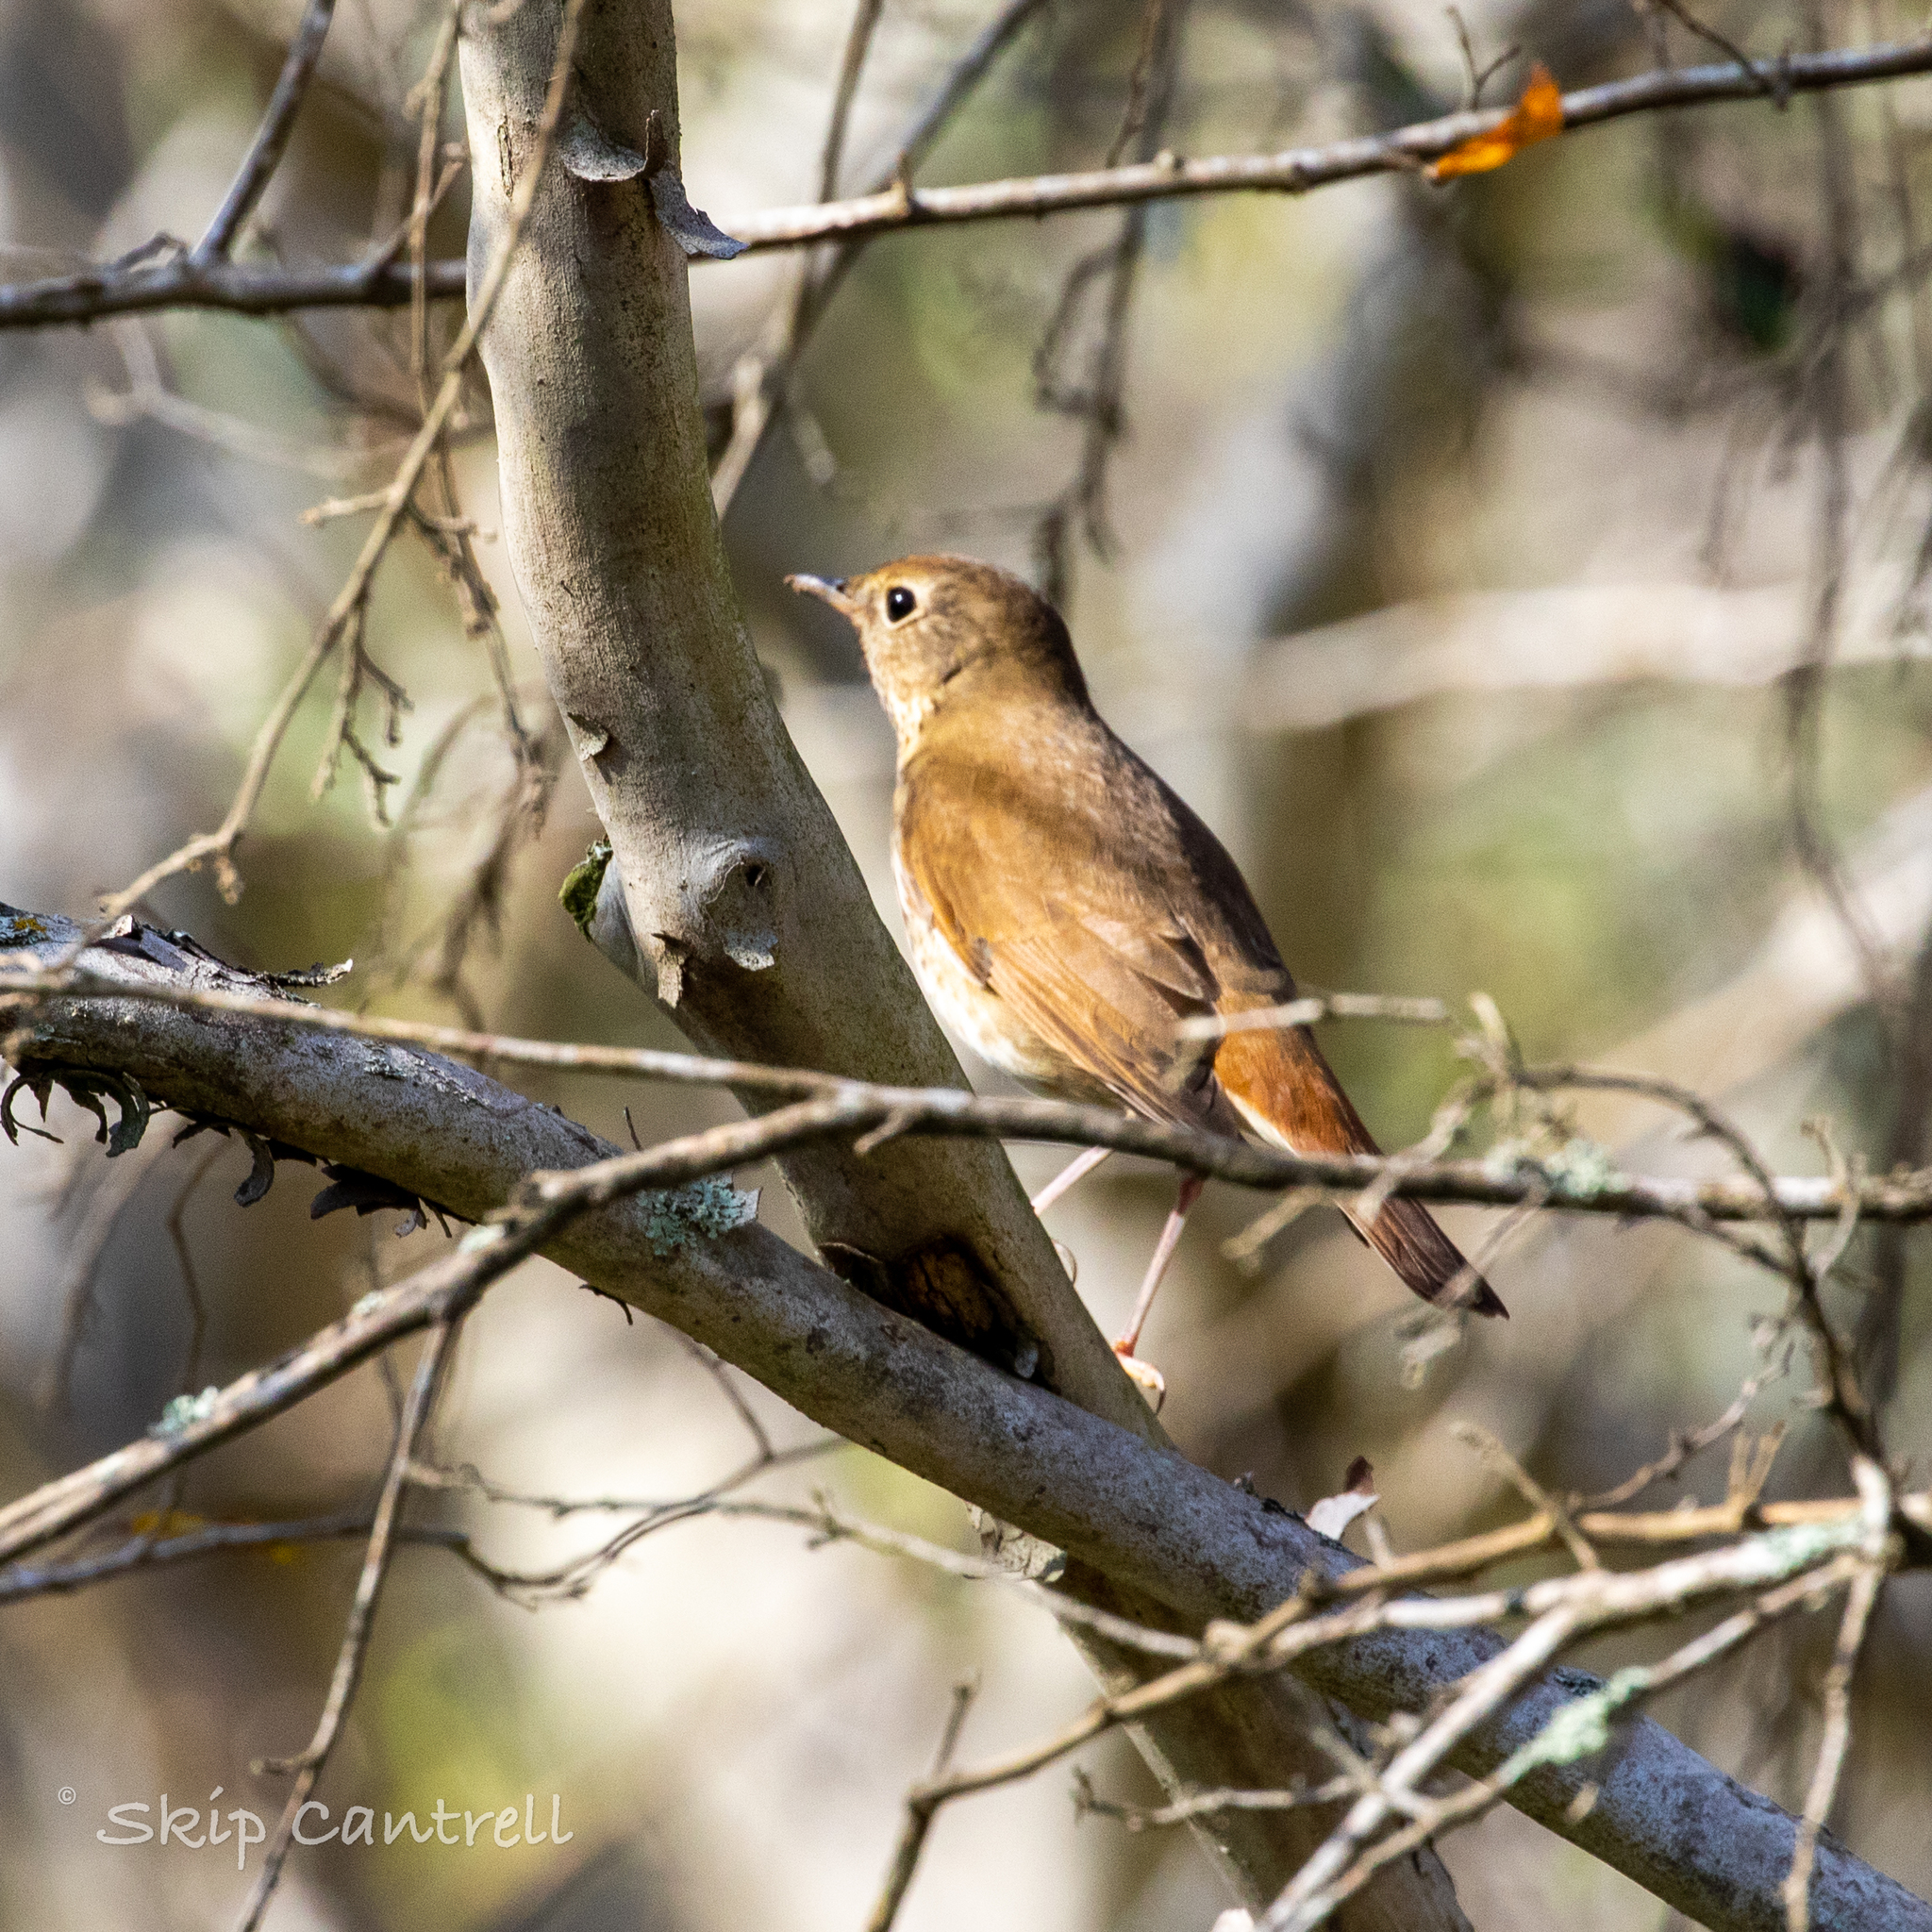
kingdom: Animalia
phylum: Chordata
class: Aves
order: Passeriformes
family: Turdidae
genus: Catharus
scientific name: Catharus guttatus
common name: Hermit thrush
